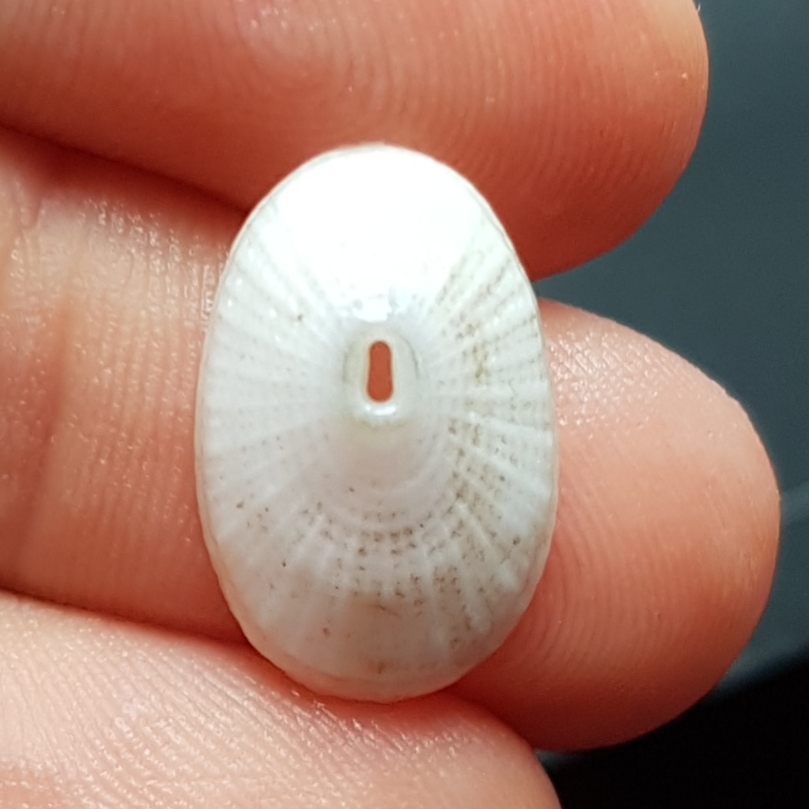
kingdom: Animalia
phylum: Mollusca
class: Gastropoda
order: Lepetellida
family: Fissurellidae
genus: Diodora
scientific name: Diodora graeca
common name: Common keyhole limpet
